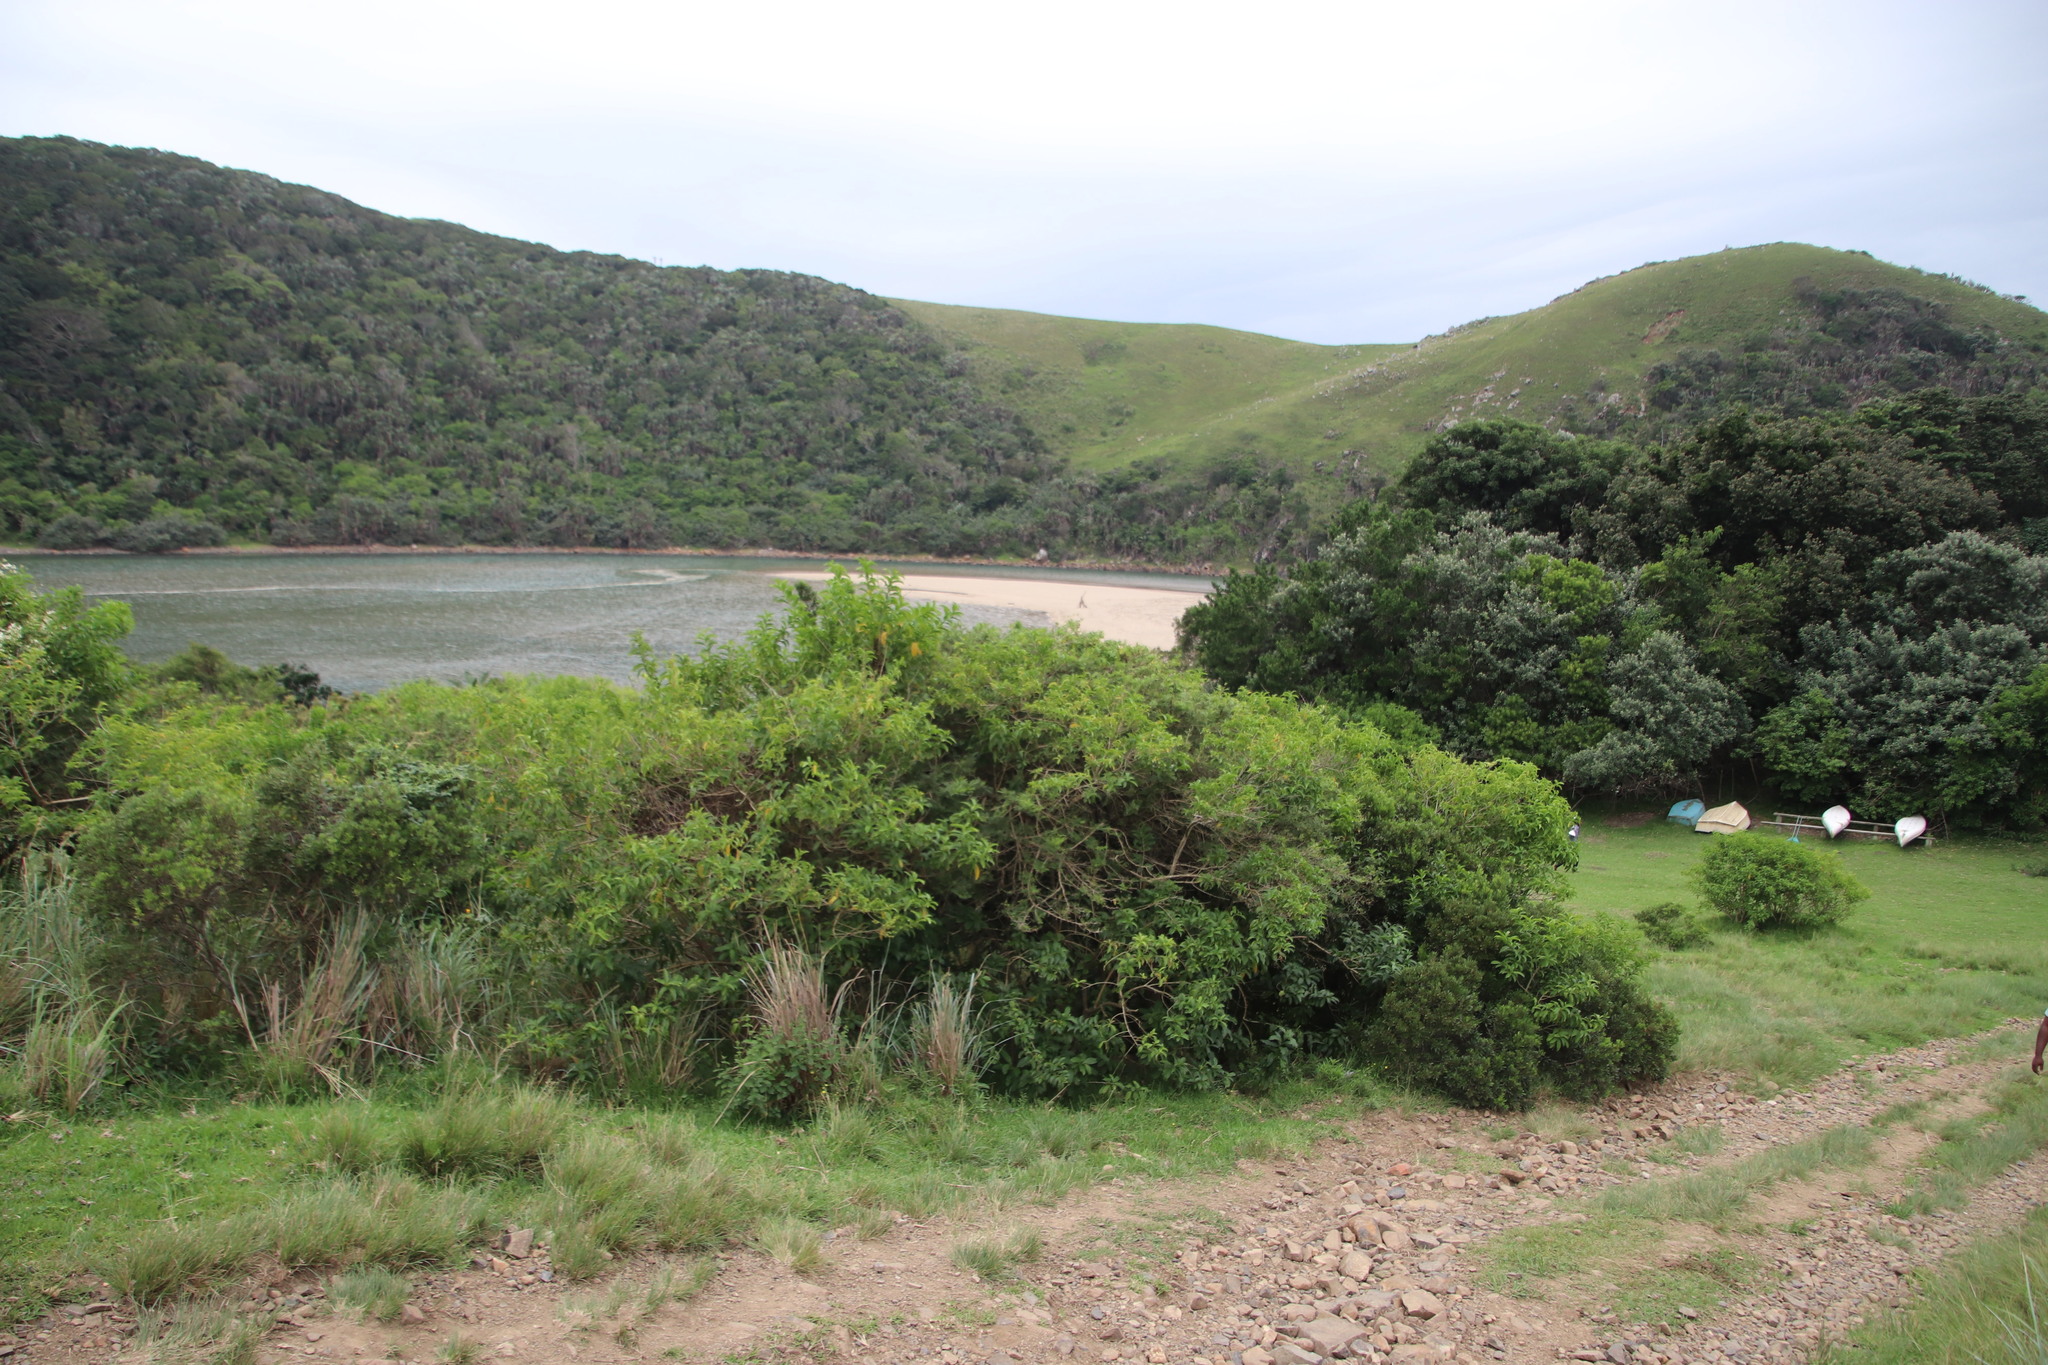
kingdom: Plantae
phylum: Tracheophyta
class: Magnoliopsida
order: Solanales
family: Solanaceae
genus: Cestrum
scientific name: Cestrum laevigatum
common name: Inkberry
